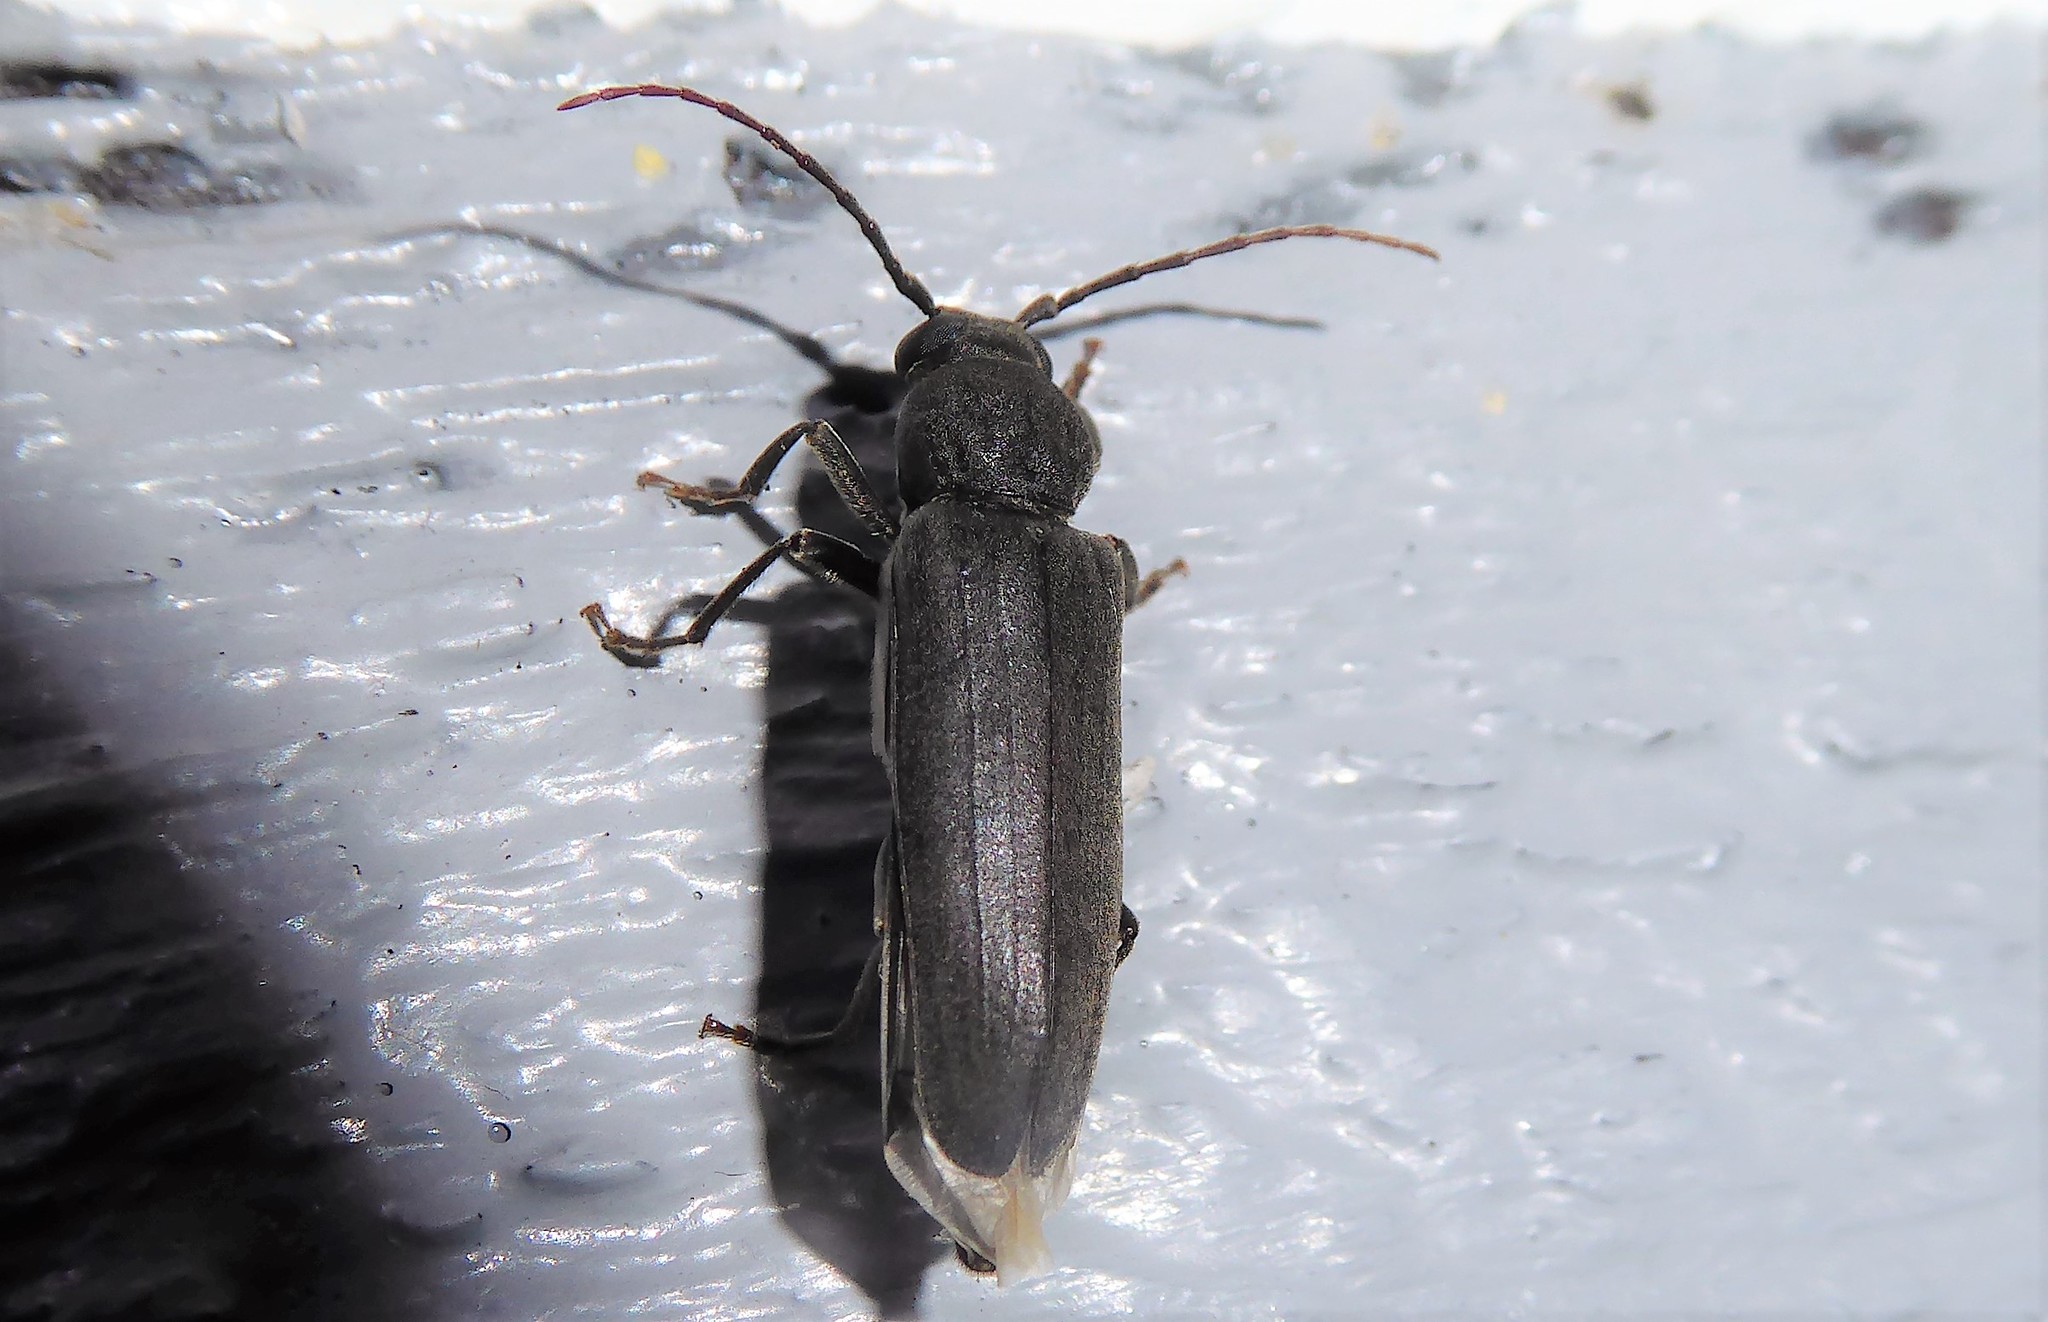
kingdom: Animalia
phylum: Arthropoda
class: Insecta
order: Coleoptera
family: Cerambycidae
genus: Arhopalus
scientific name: Arhopalus ferus
